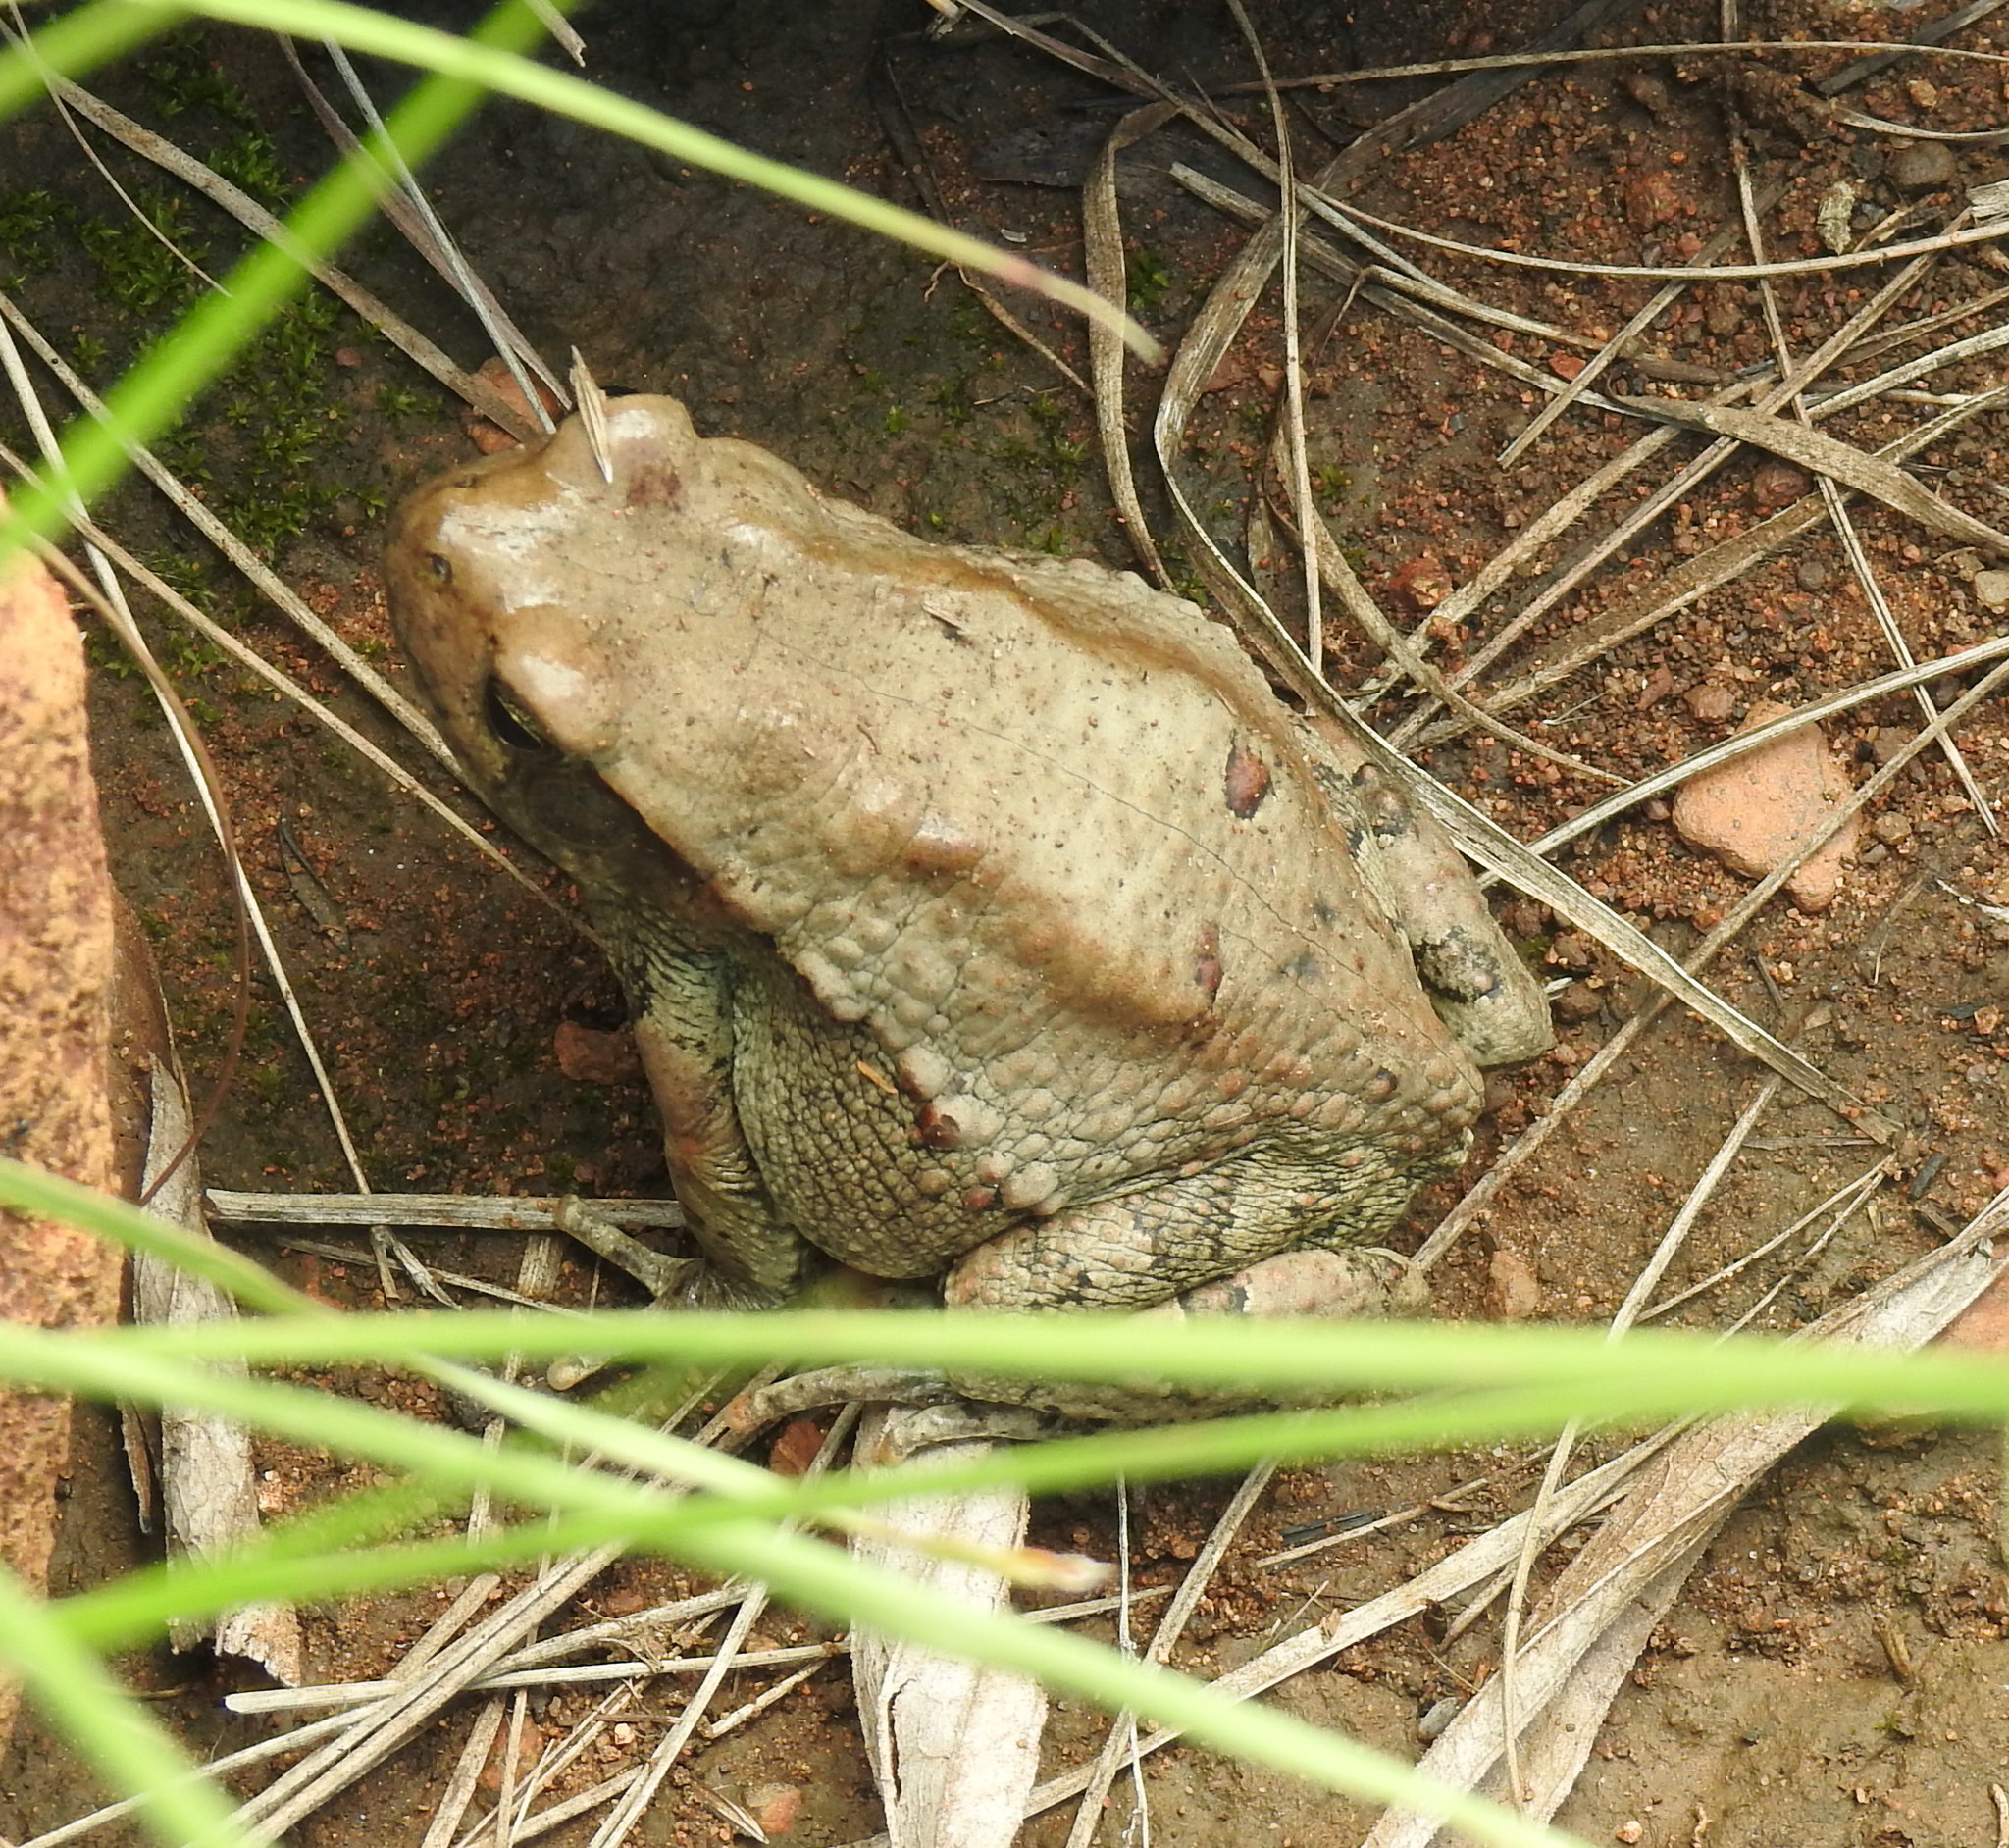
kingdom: Animalia
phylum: Chordata
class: Amphibia
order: Anura
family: Bufonidae
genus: Schismaderma
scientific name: Schismaderma carens
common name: African split-skin toad
